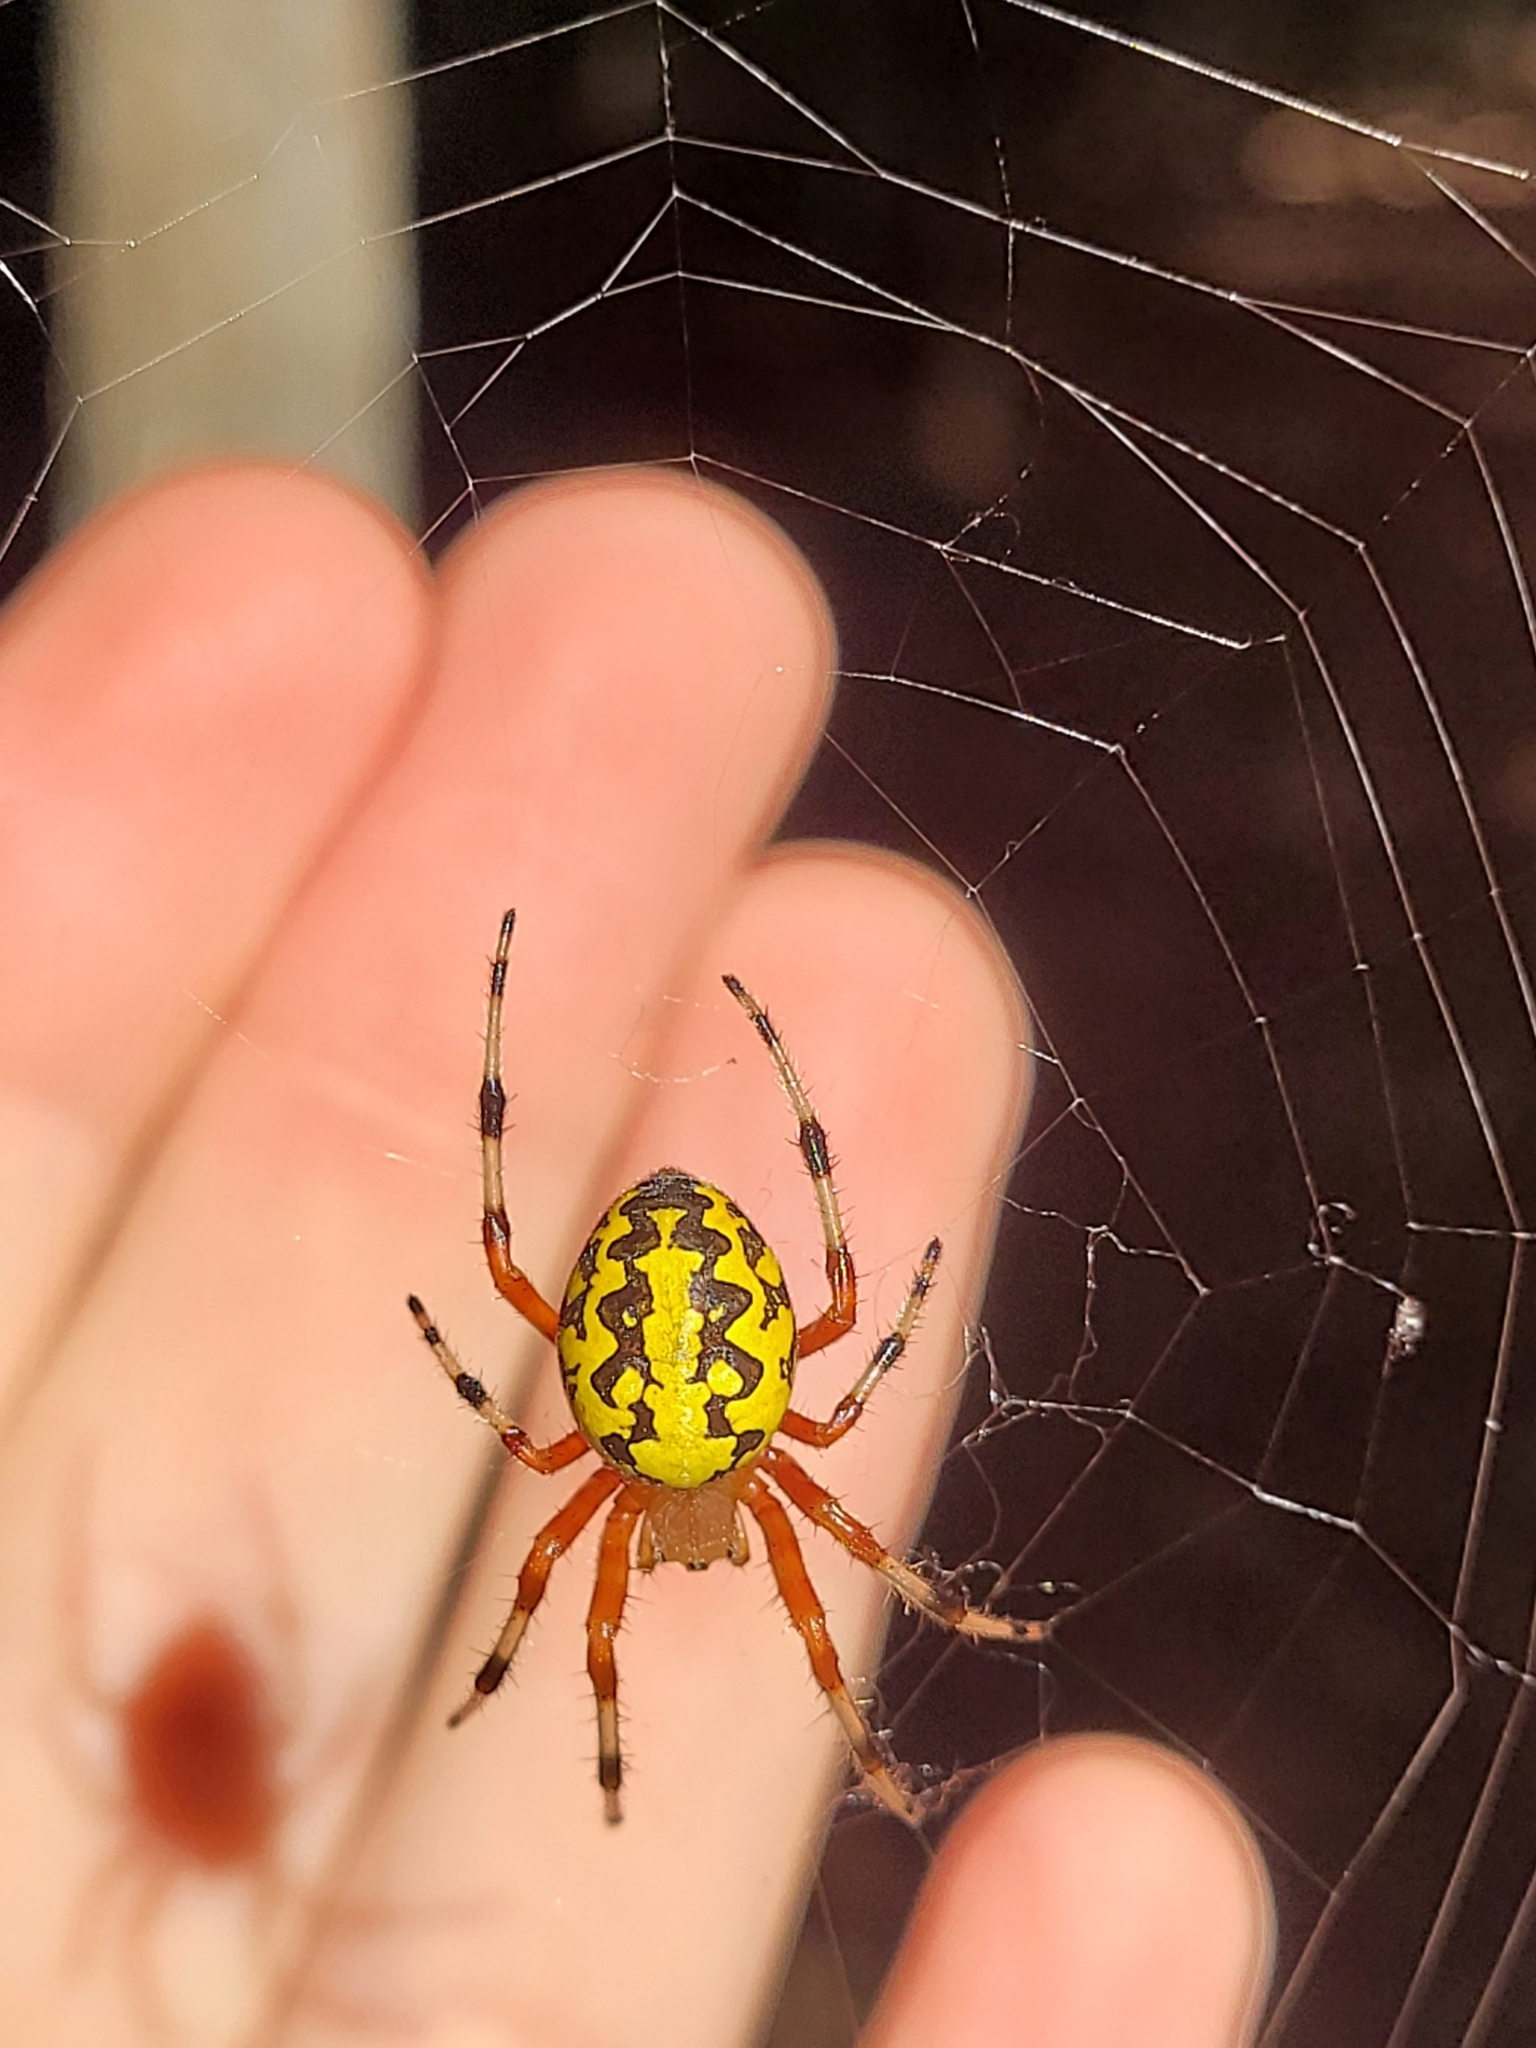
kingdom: Animalia
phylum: Arthropoda
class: Arachnida
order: Araneae
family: Araneidae
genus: Araneus
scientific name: Araneus marmoreus
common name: Marbled orbweaver
